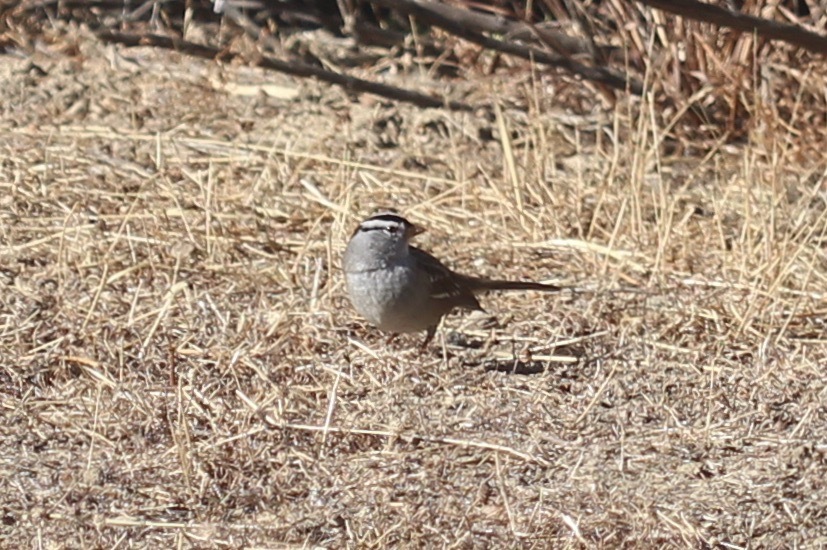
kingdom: Animalia
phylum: Chordata
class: Aves
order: Passeriformes
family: Passerellidae
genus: Zonotrichia
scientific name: Zonotrichia leucophrys
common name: White-crowned sparrow
